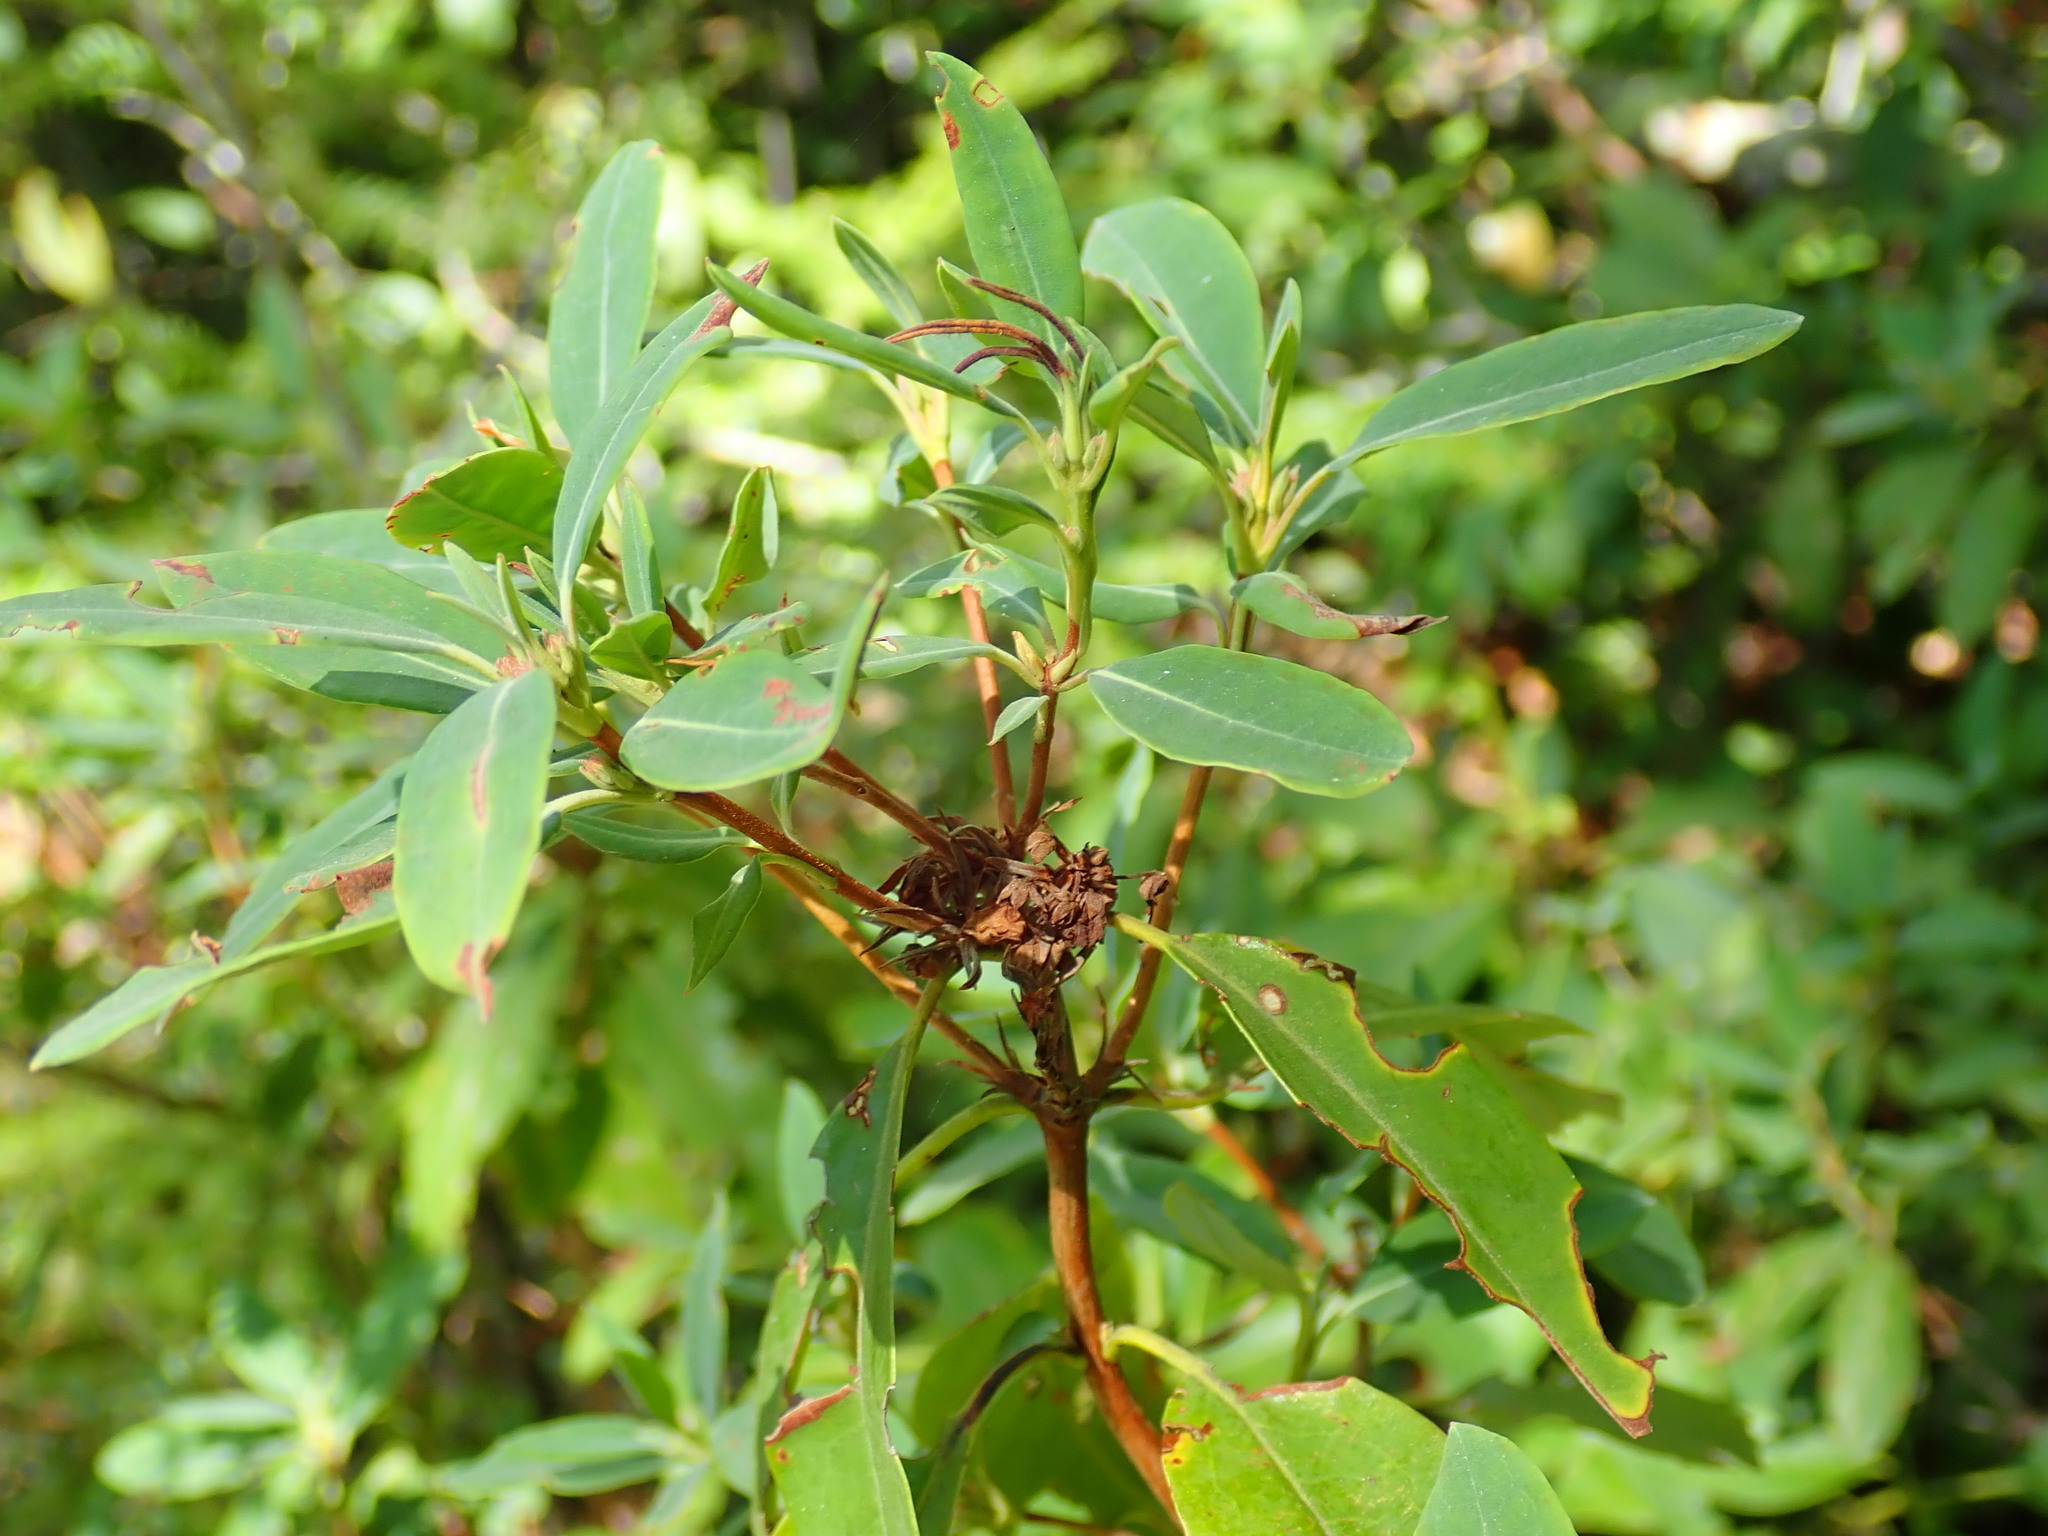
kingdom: Plantae
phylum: Tracheophyta
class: Magnoliopsida
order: Ericales
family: Ericaceae
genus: Kalmia
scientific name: Kalmia angustifolia
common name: Sheep-laurel
